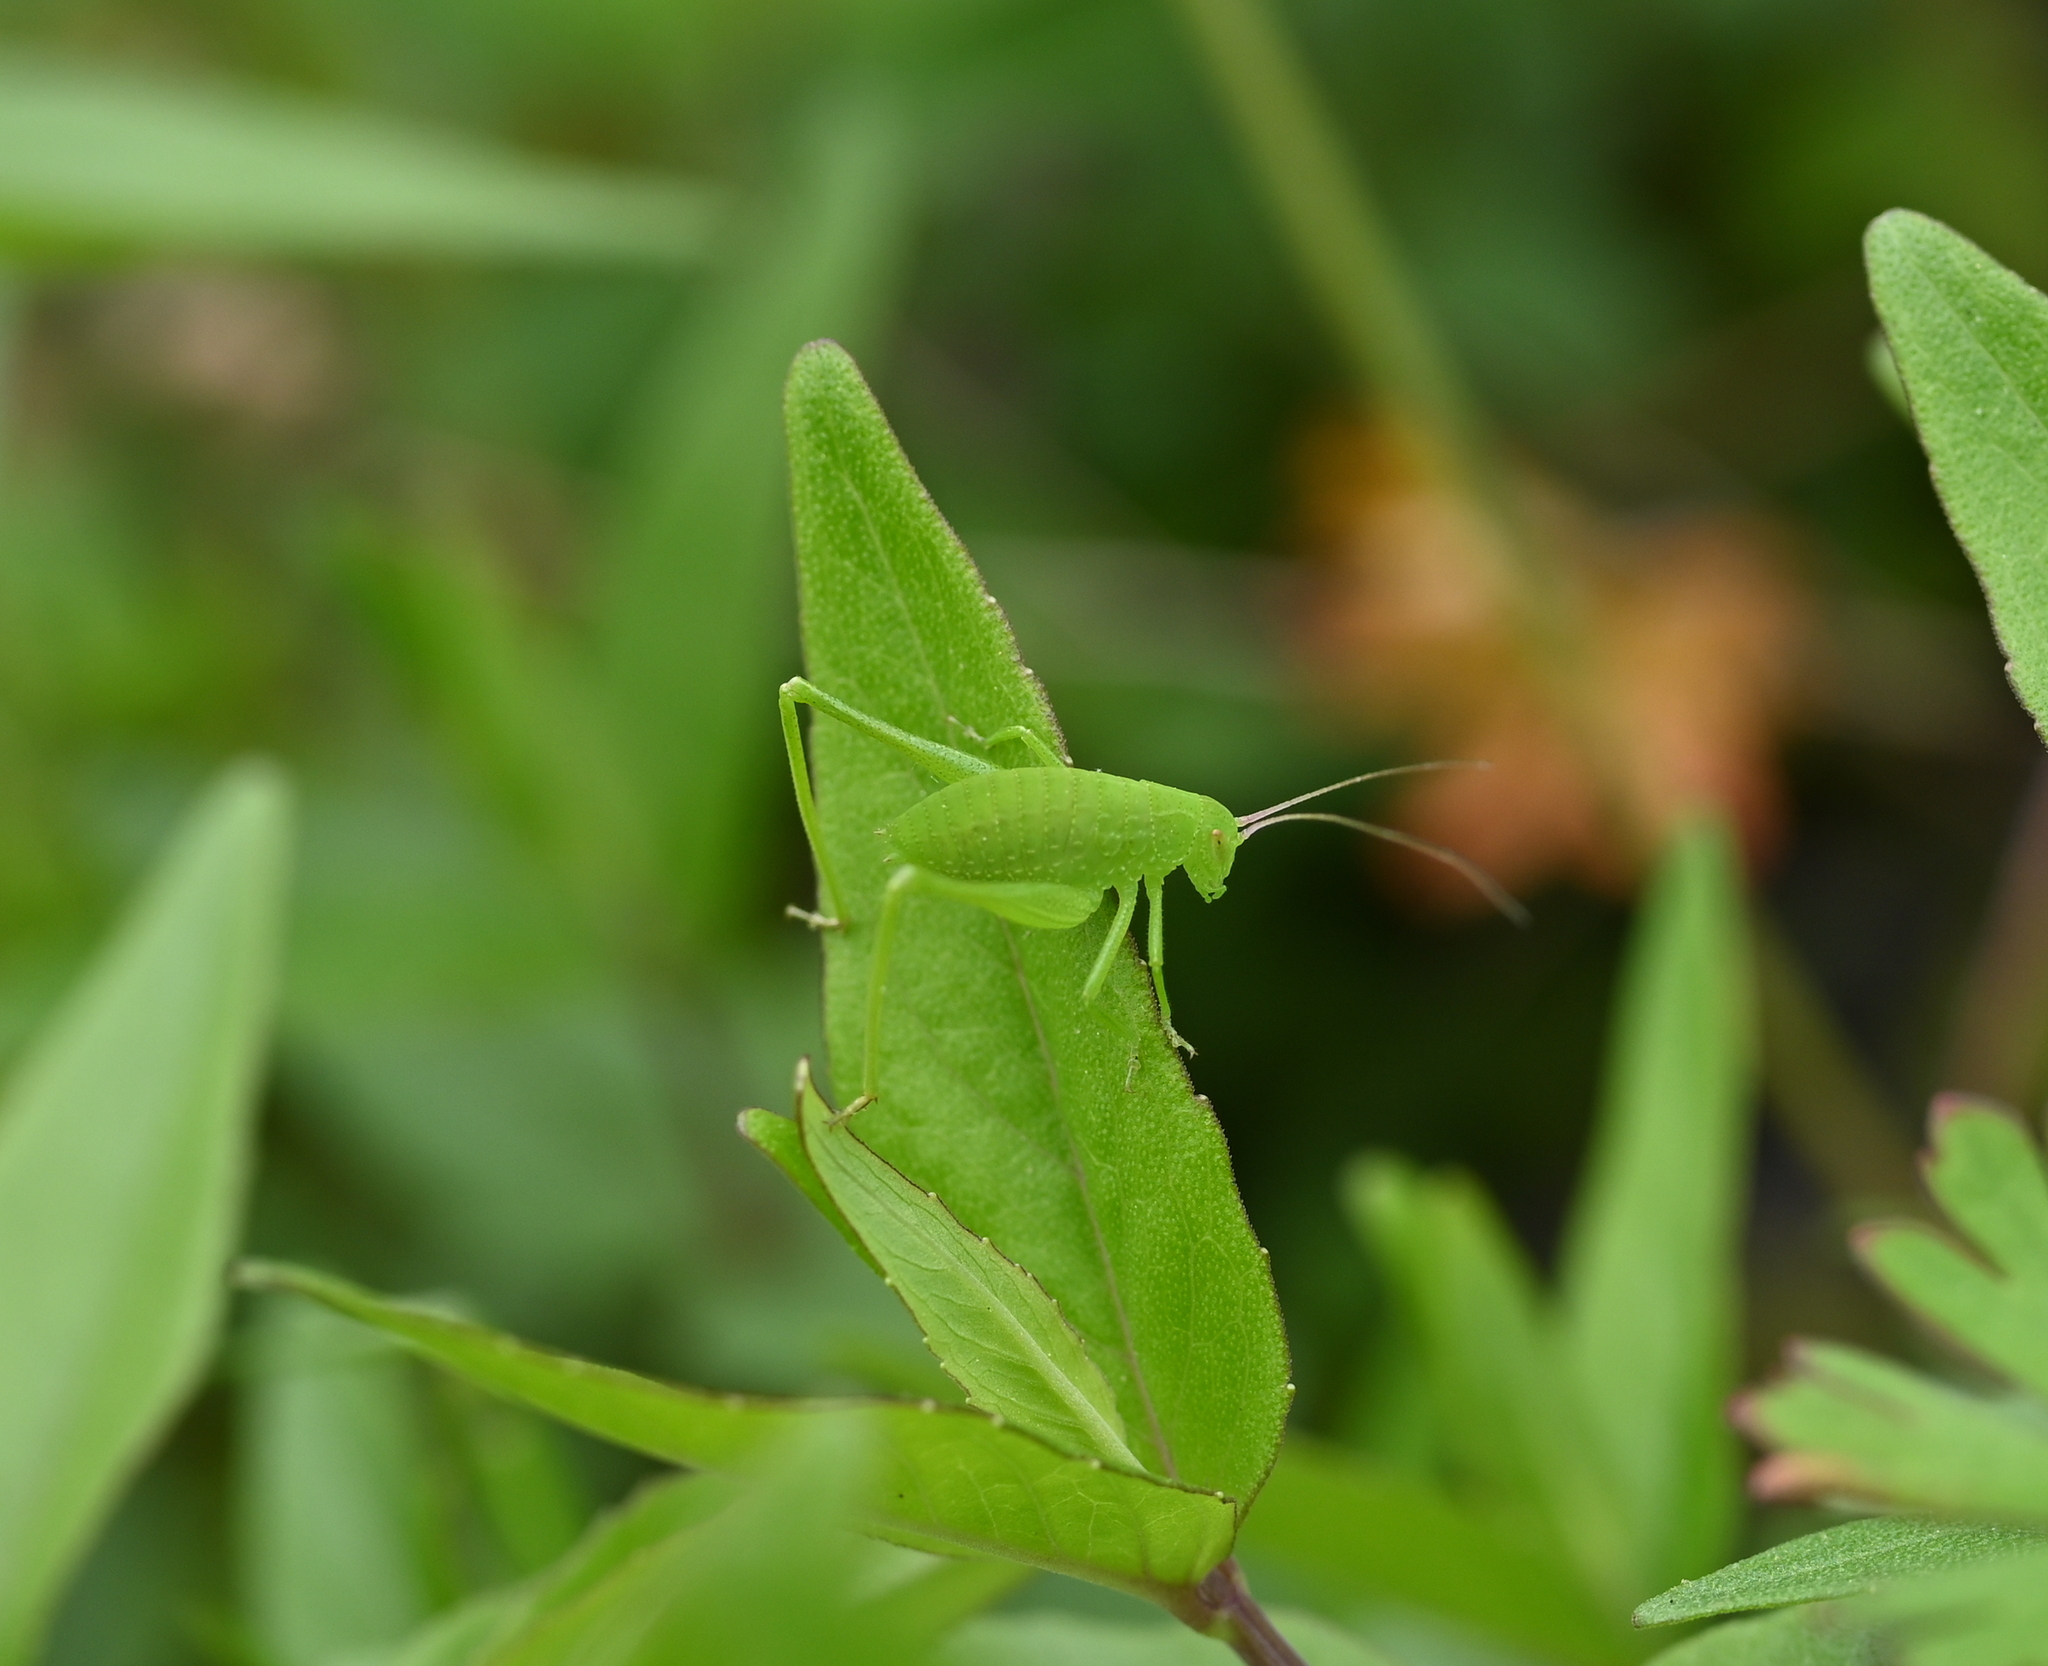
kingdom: Animalia
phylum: Arthropoda
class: Insecta
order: Orthoptera
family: Tettigoniidae
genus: Amblycorypha
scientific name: Amblycorypha oblongifolia
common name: Oblong-winged katydid
